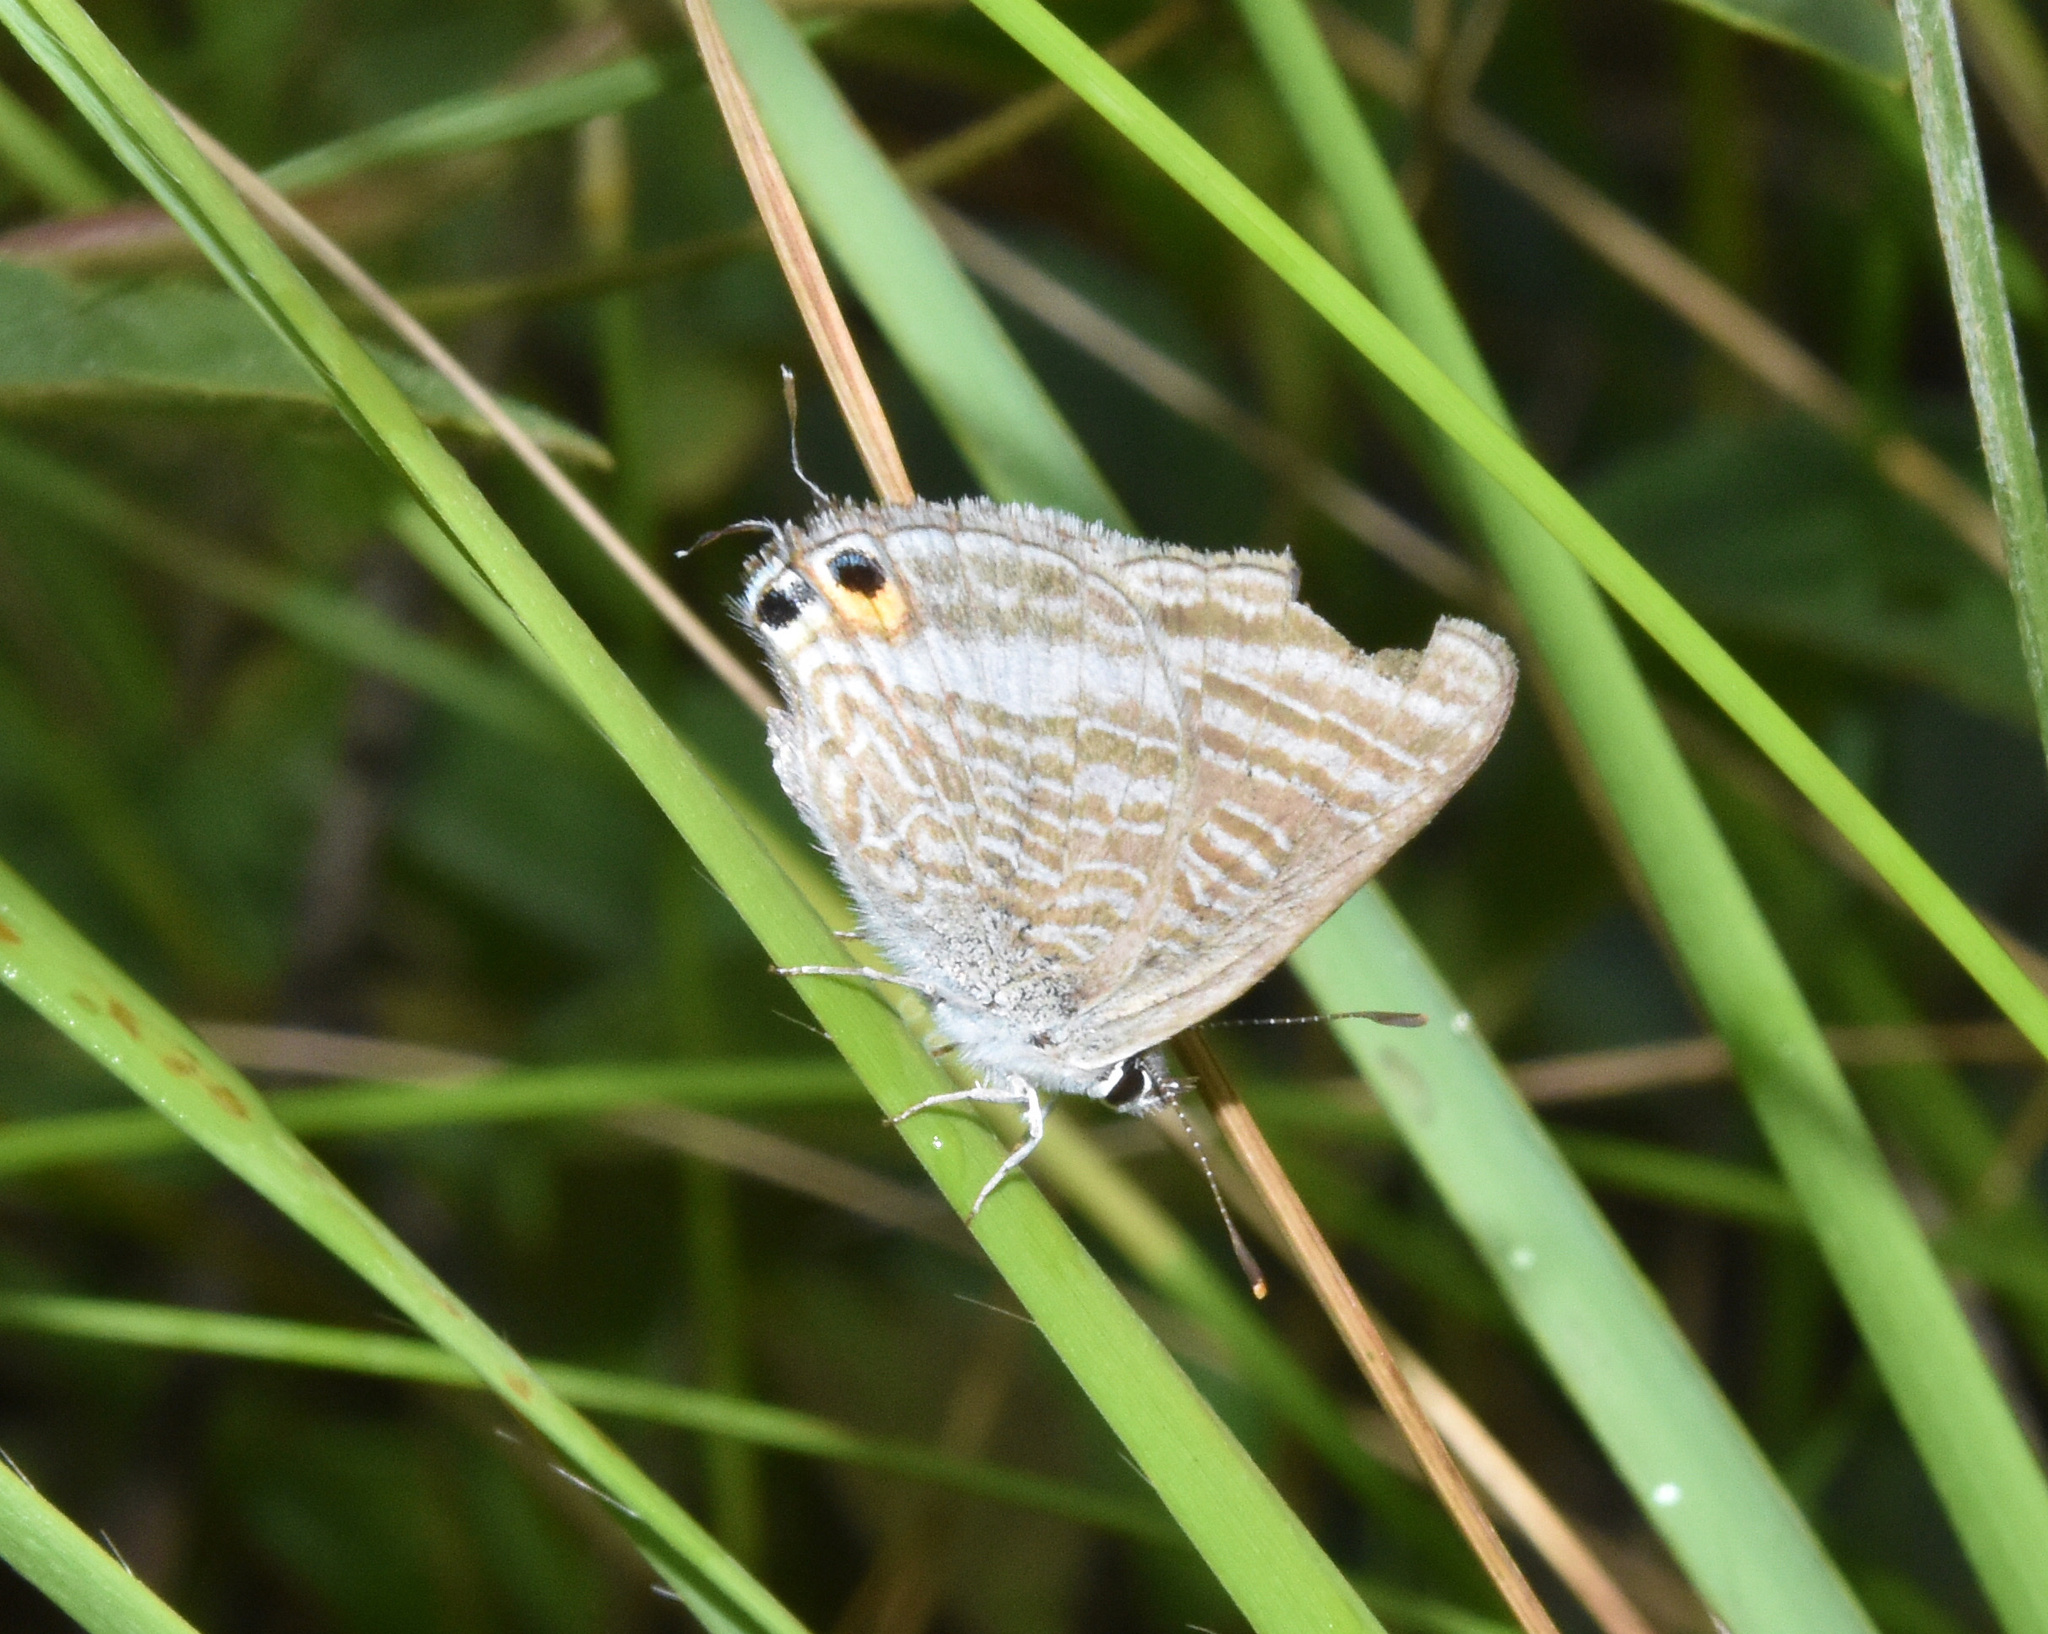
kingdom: Animalia
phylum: Arthropoda
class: Insecta
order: Lepidoptera
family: Lycaenidae
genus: Lampides
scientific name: Lampides boeticus
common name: Long-tailed blue
